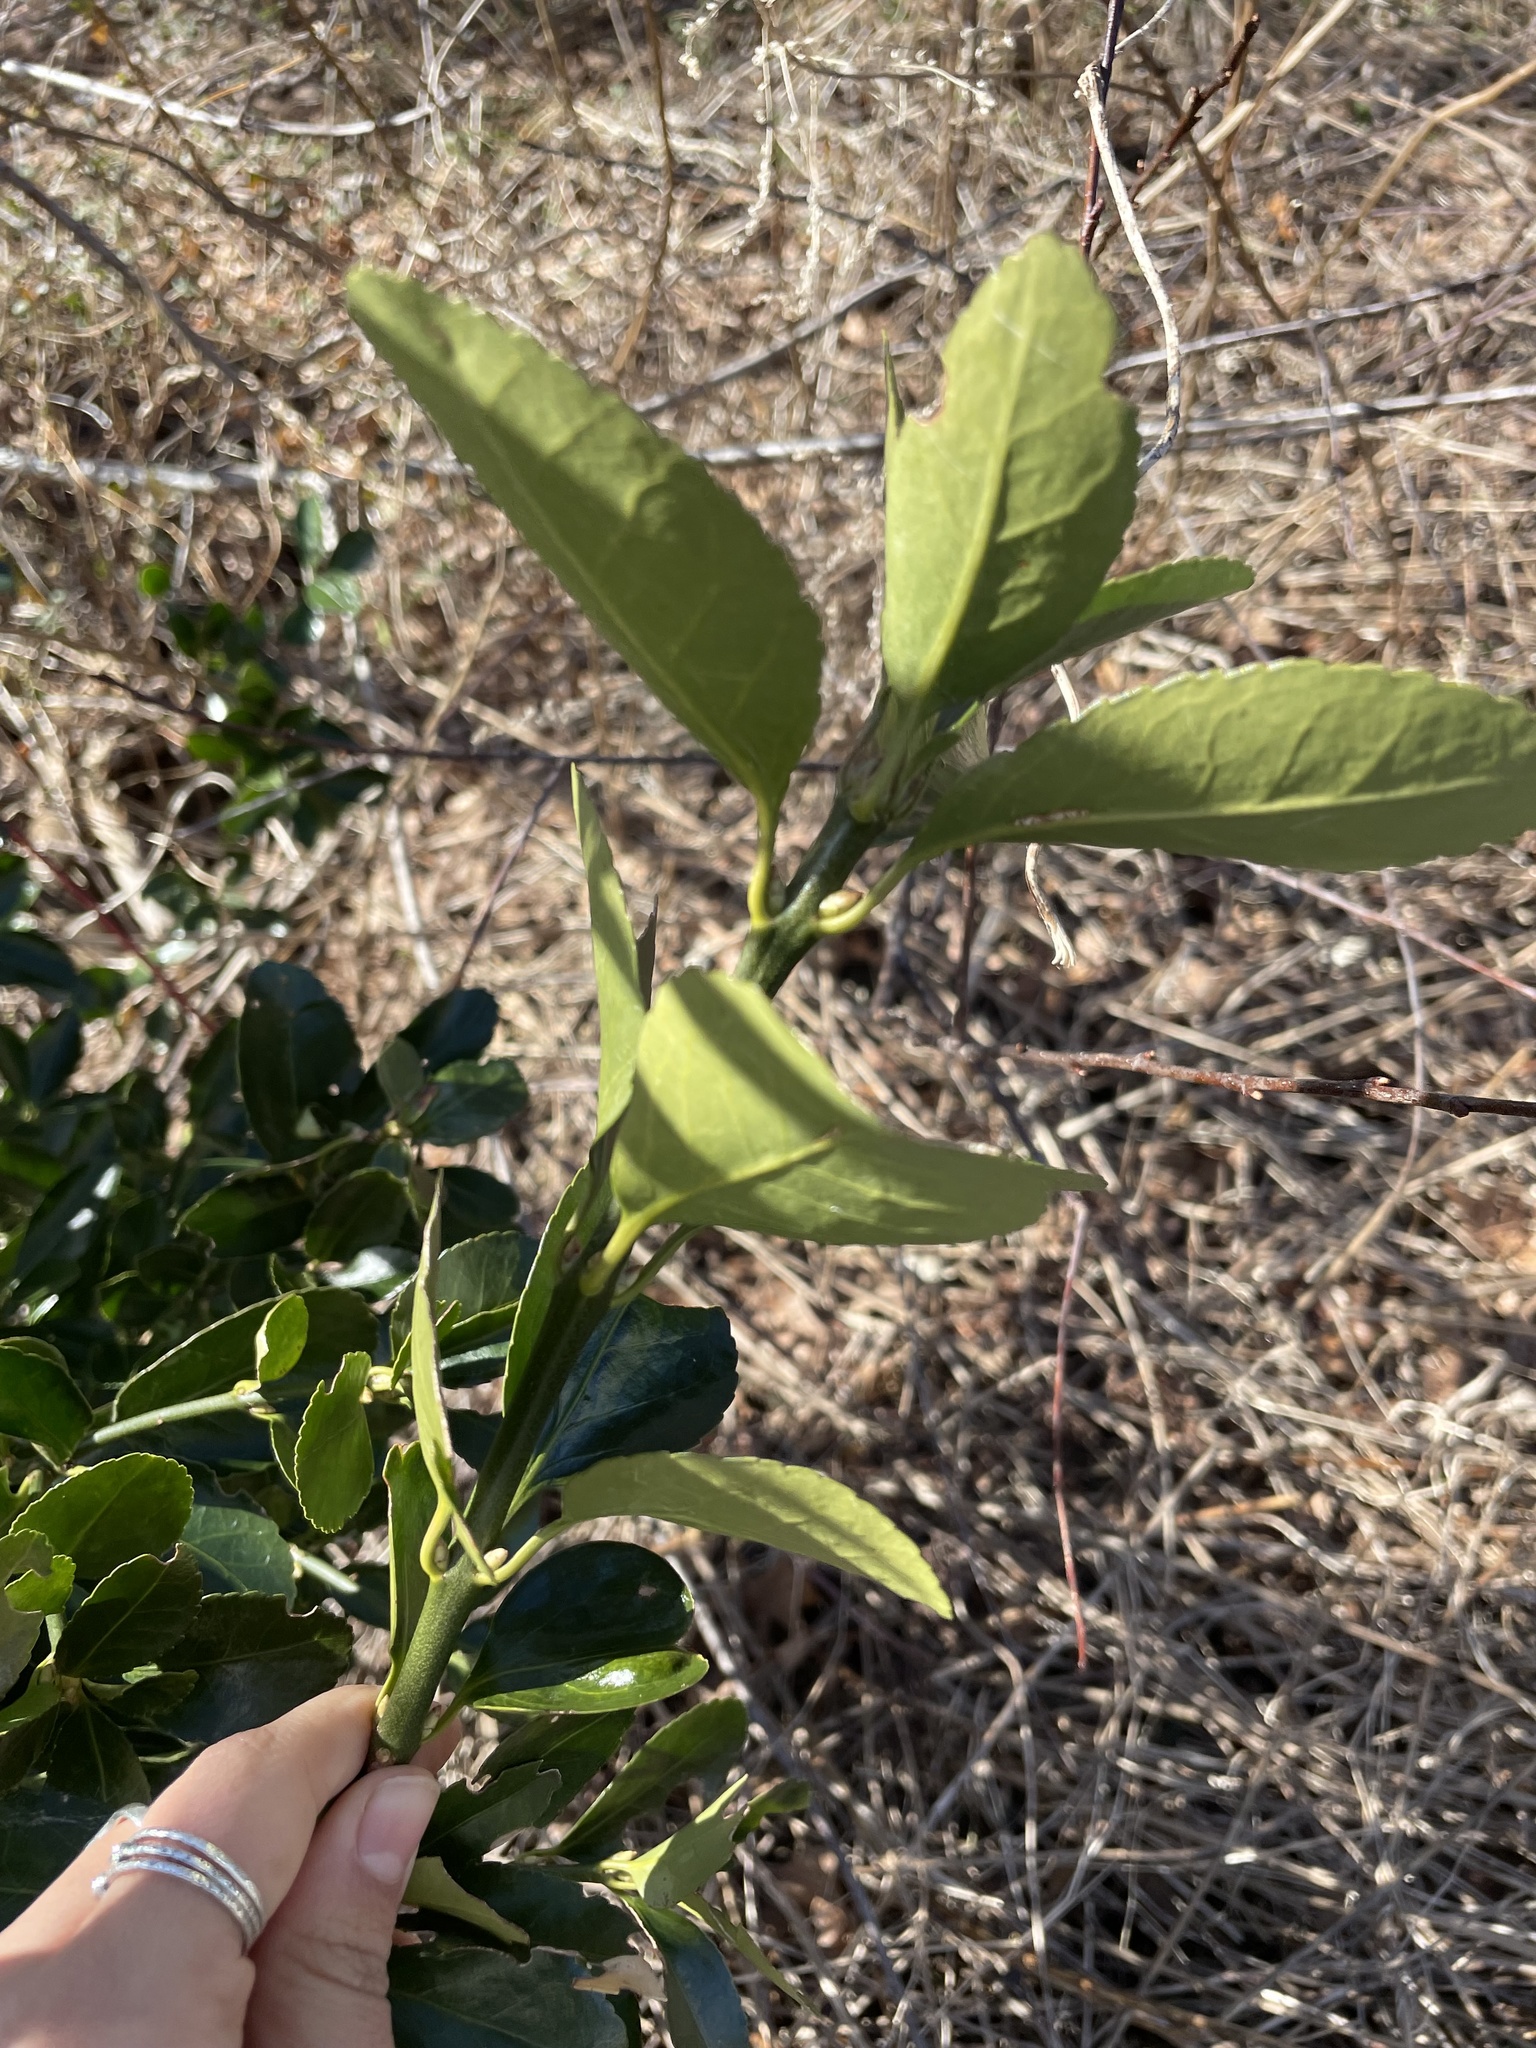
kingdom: Plantae
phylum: Tracheophyta
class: Magnoliopsida
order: Celastrales
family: Celastraceae
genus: Euonymus
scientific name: Euonymus japonicus
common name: Japanese spindletree
